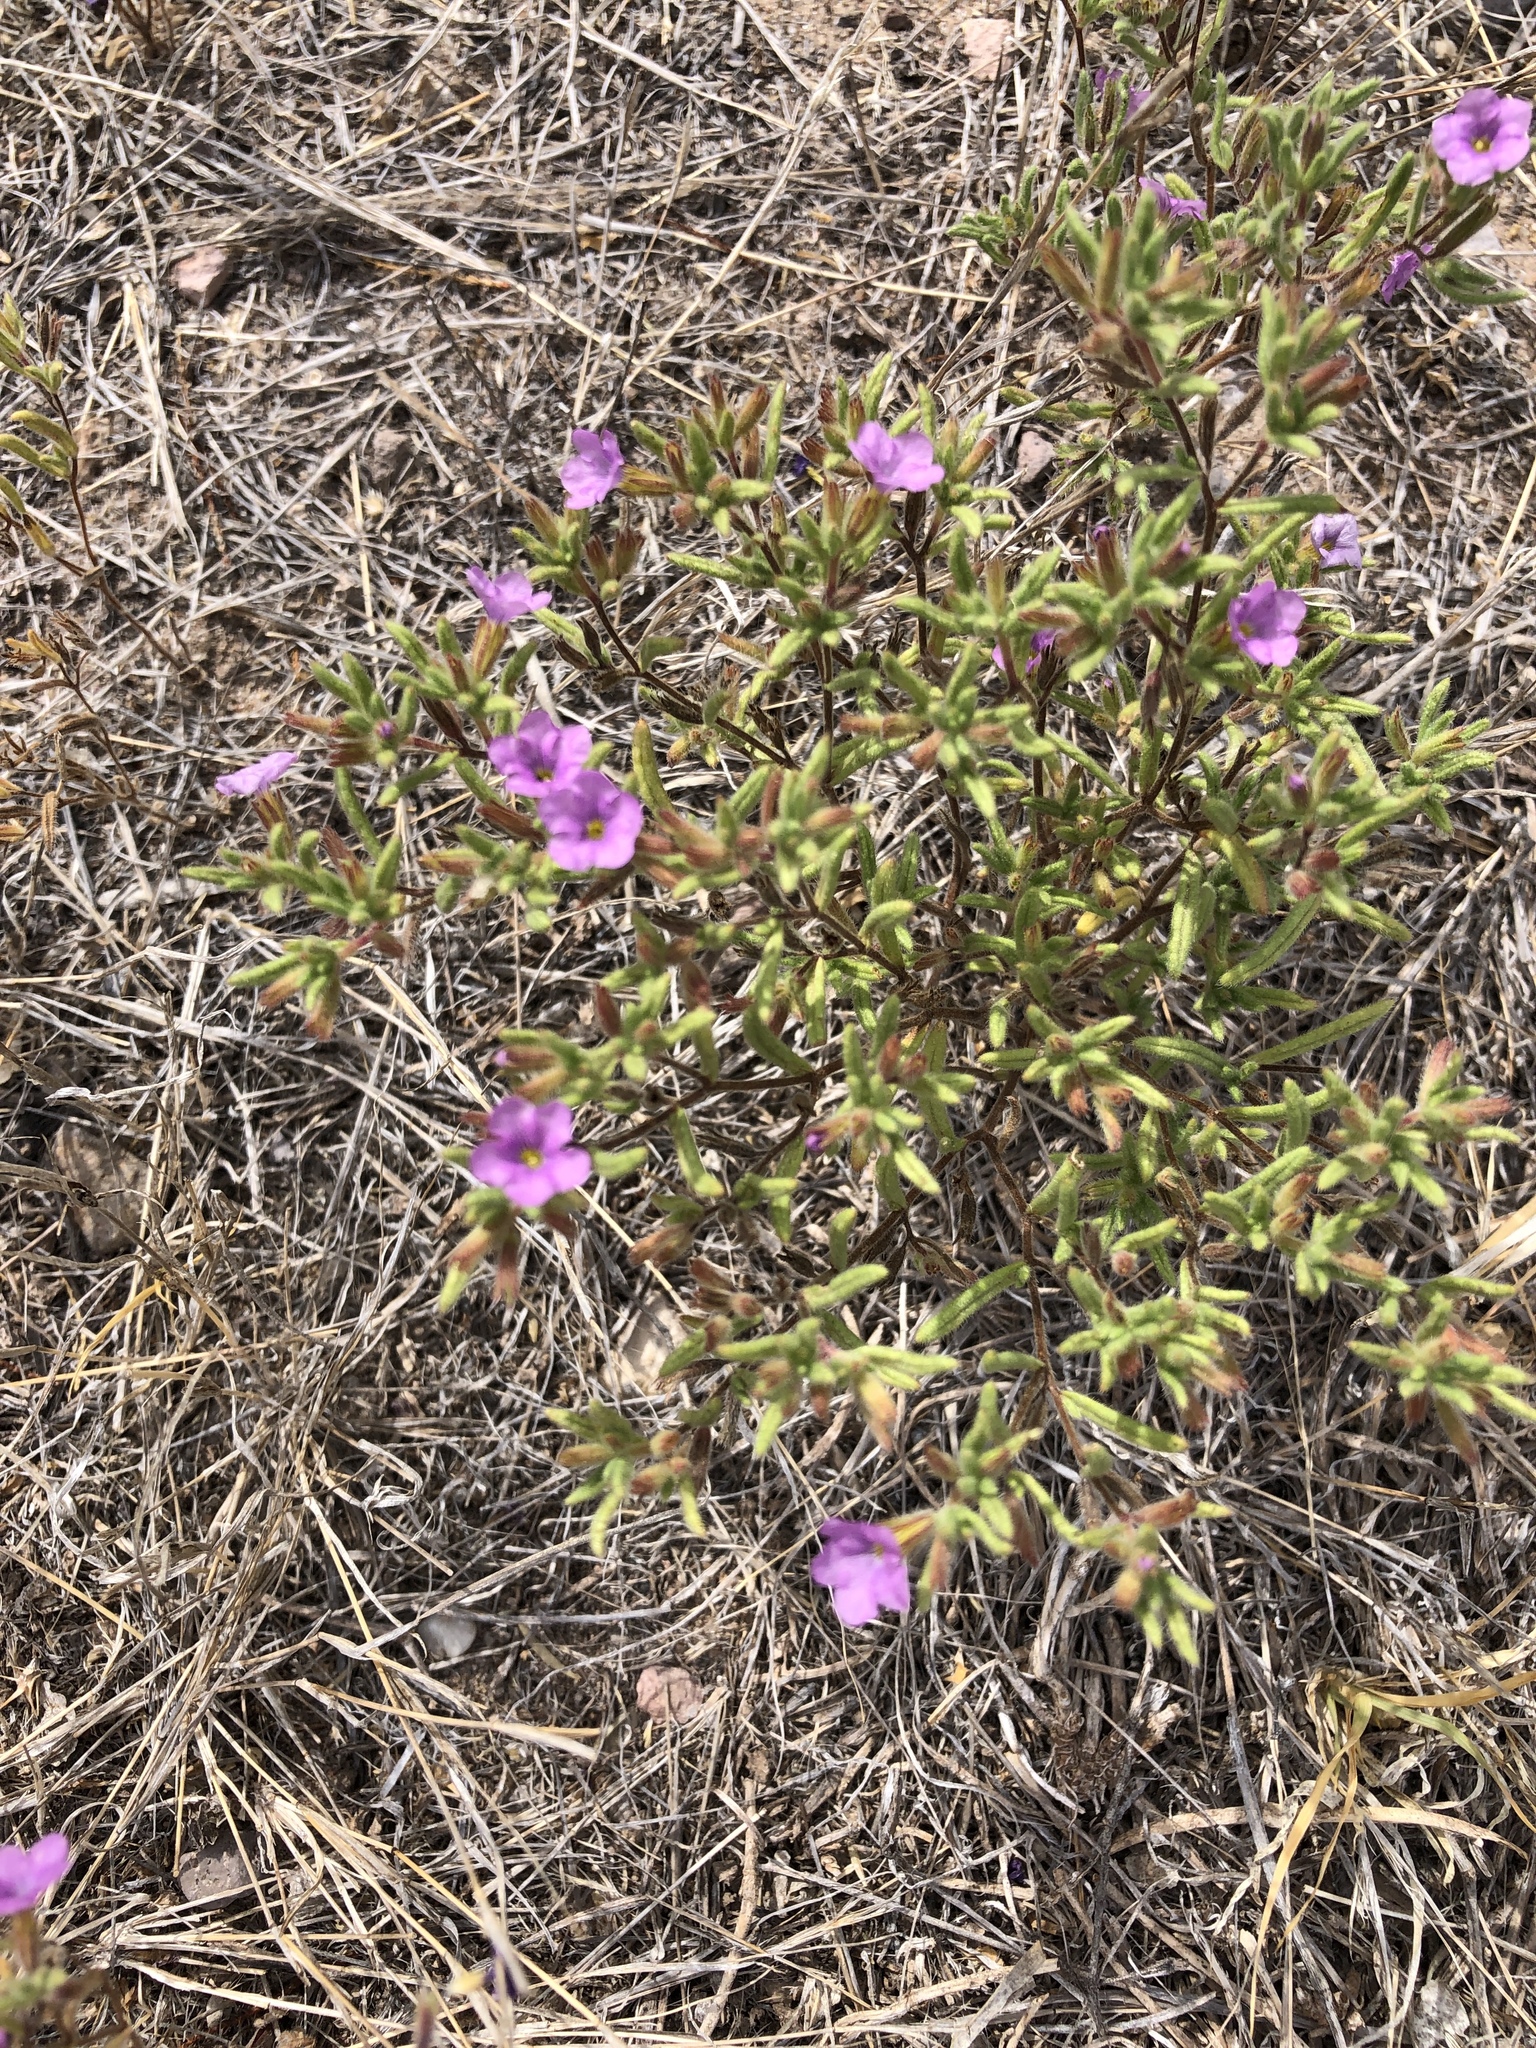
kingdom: Plantae
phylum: Tracheophyta
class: Magnoliopsida
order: Boraginales
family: Namaceae
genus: Nama
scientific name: Nama hispida
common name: Bristly nama
